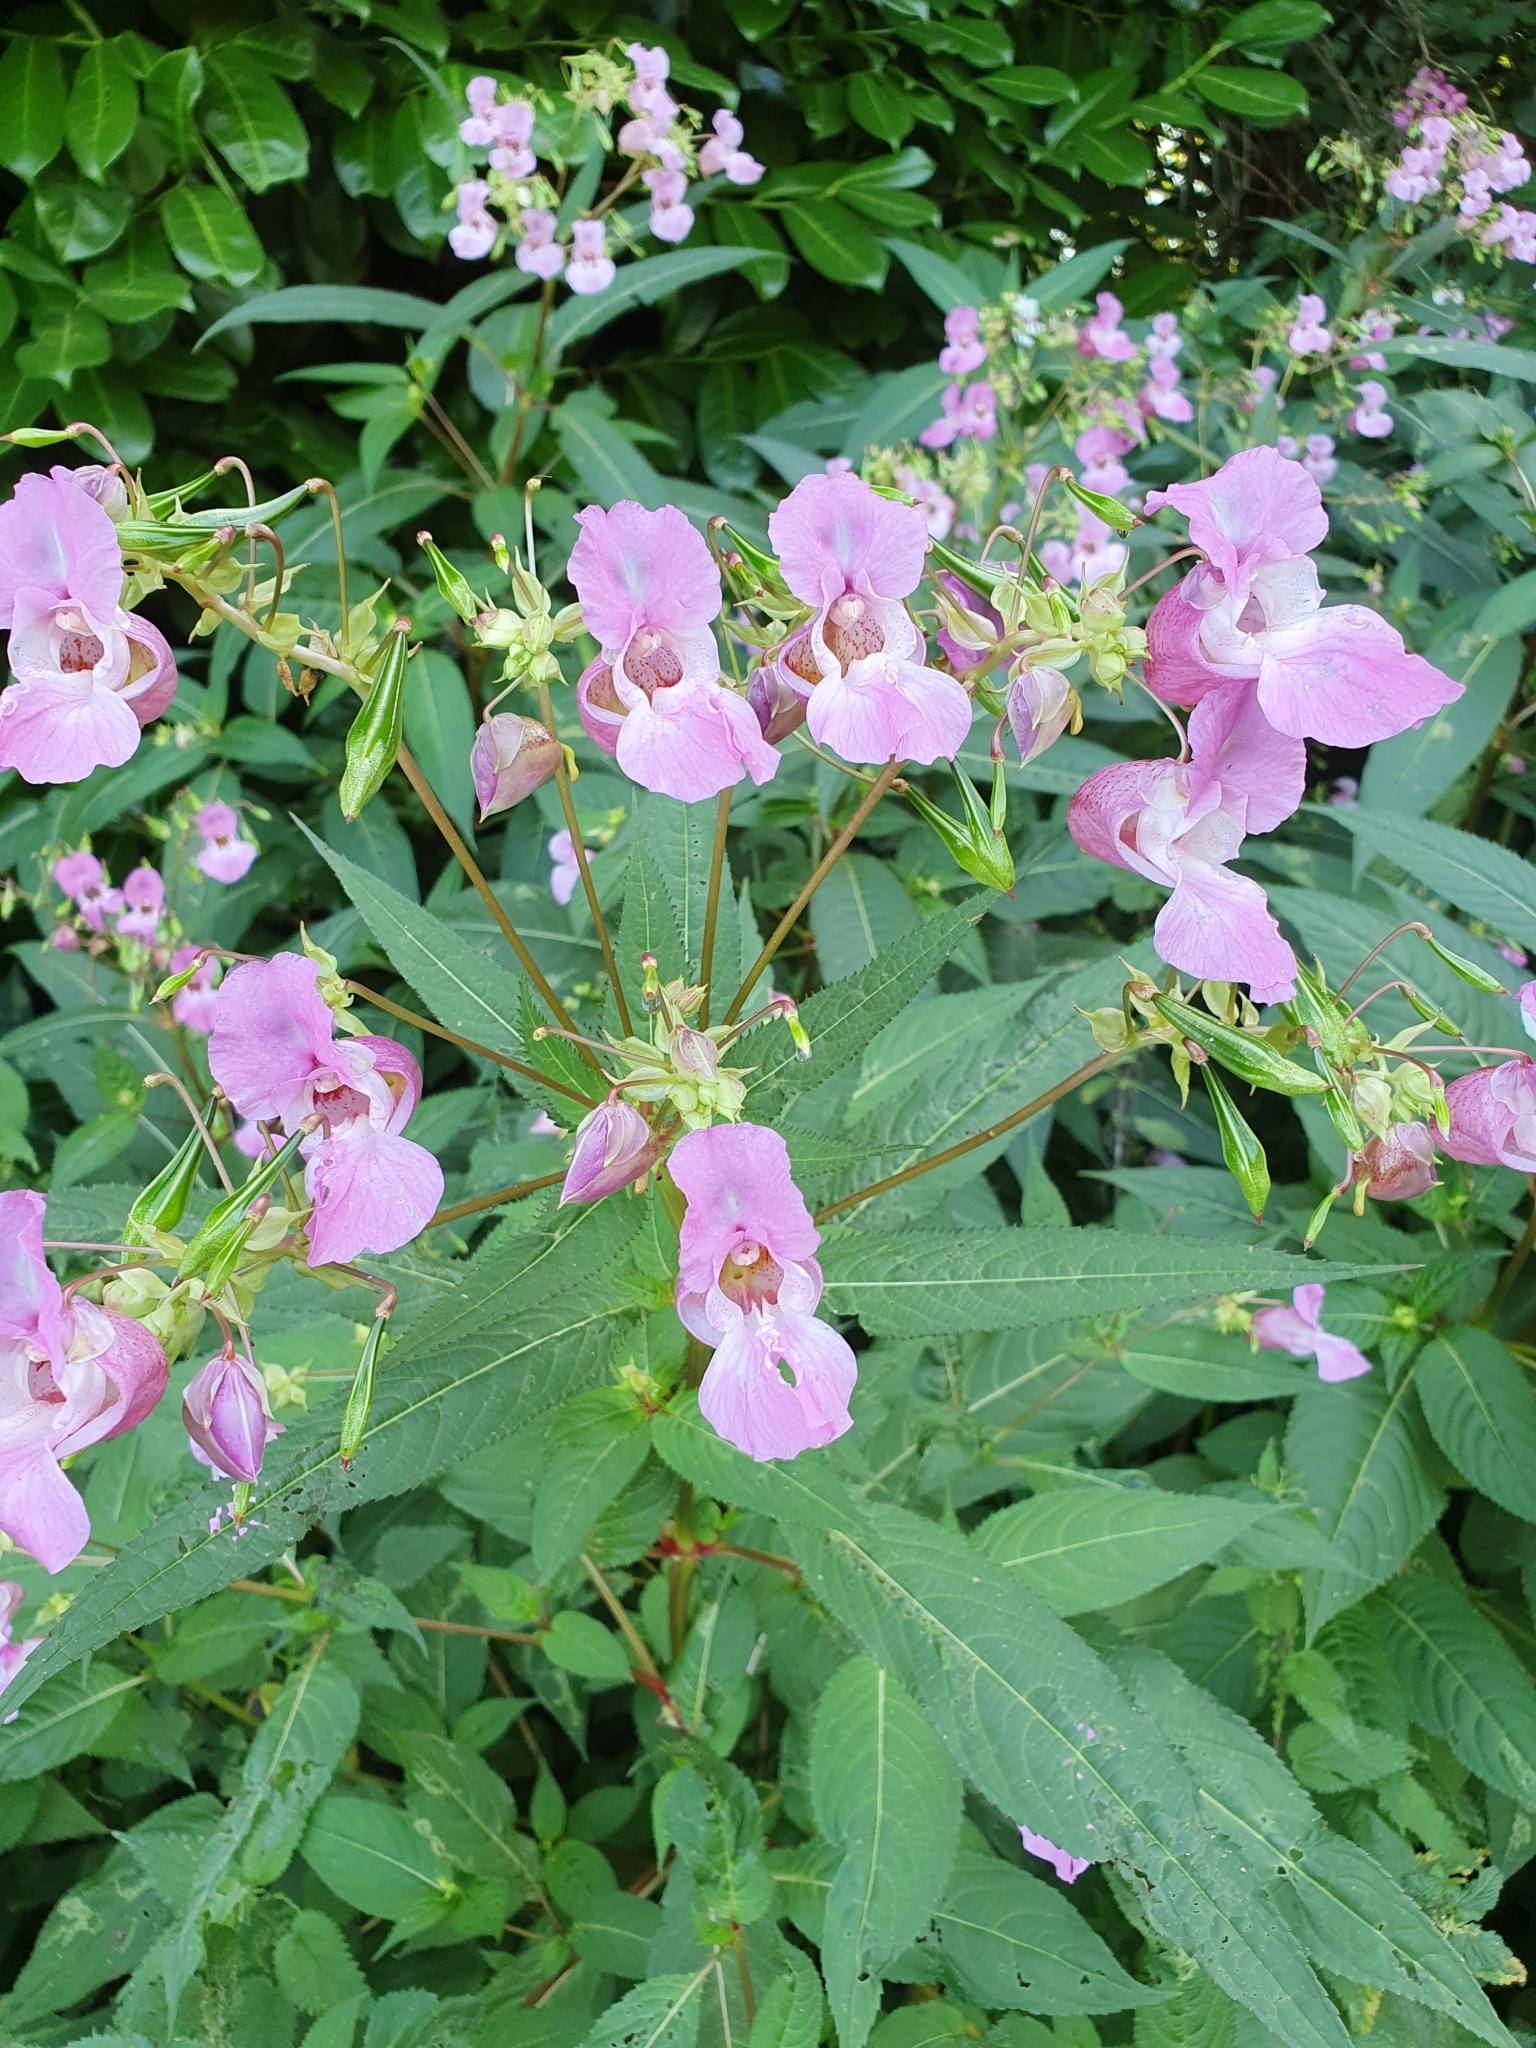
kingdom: Plantae
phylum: Tracheophyta
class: Magnoliopsida
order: Ericales
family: Balsaminaceae
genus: Impatiens
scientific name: Impatiens glandulifera
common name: Himalayan balsam
